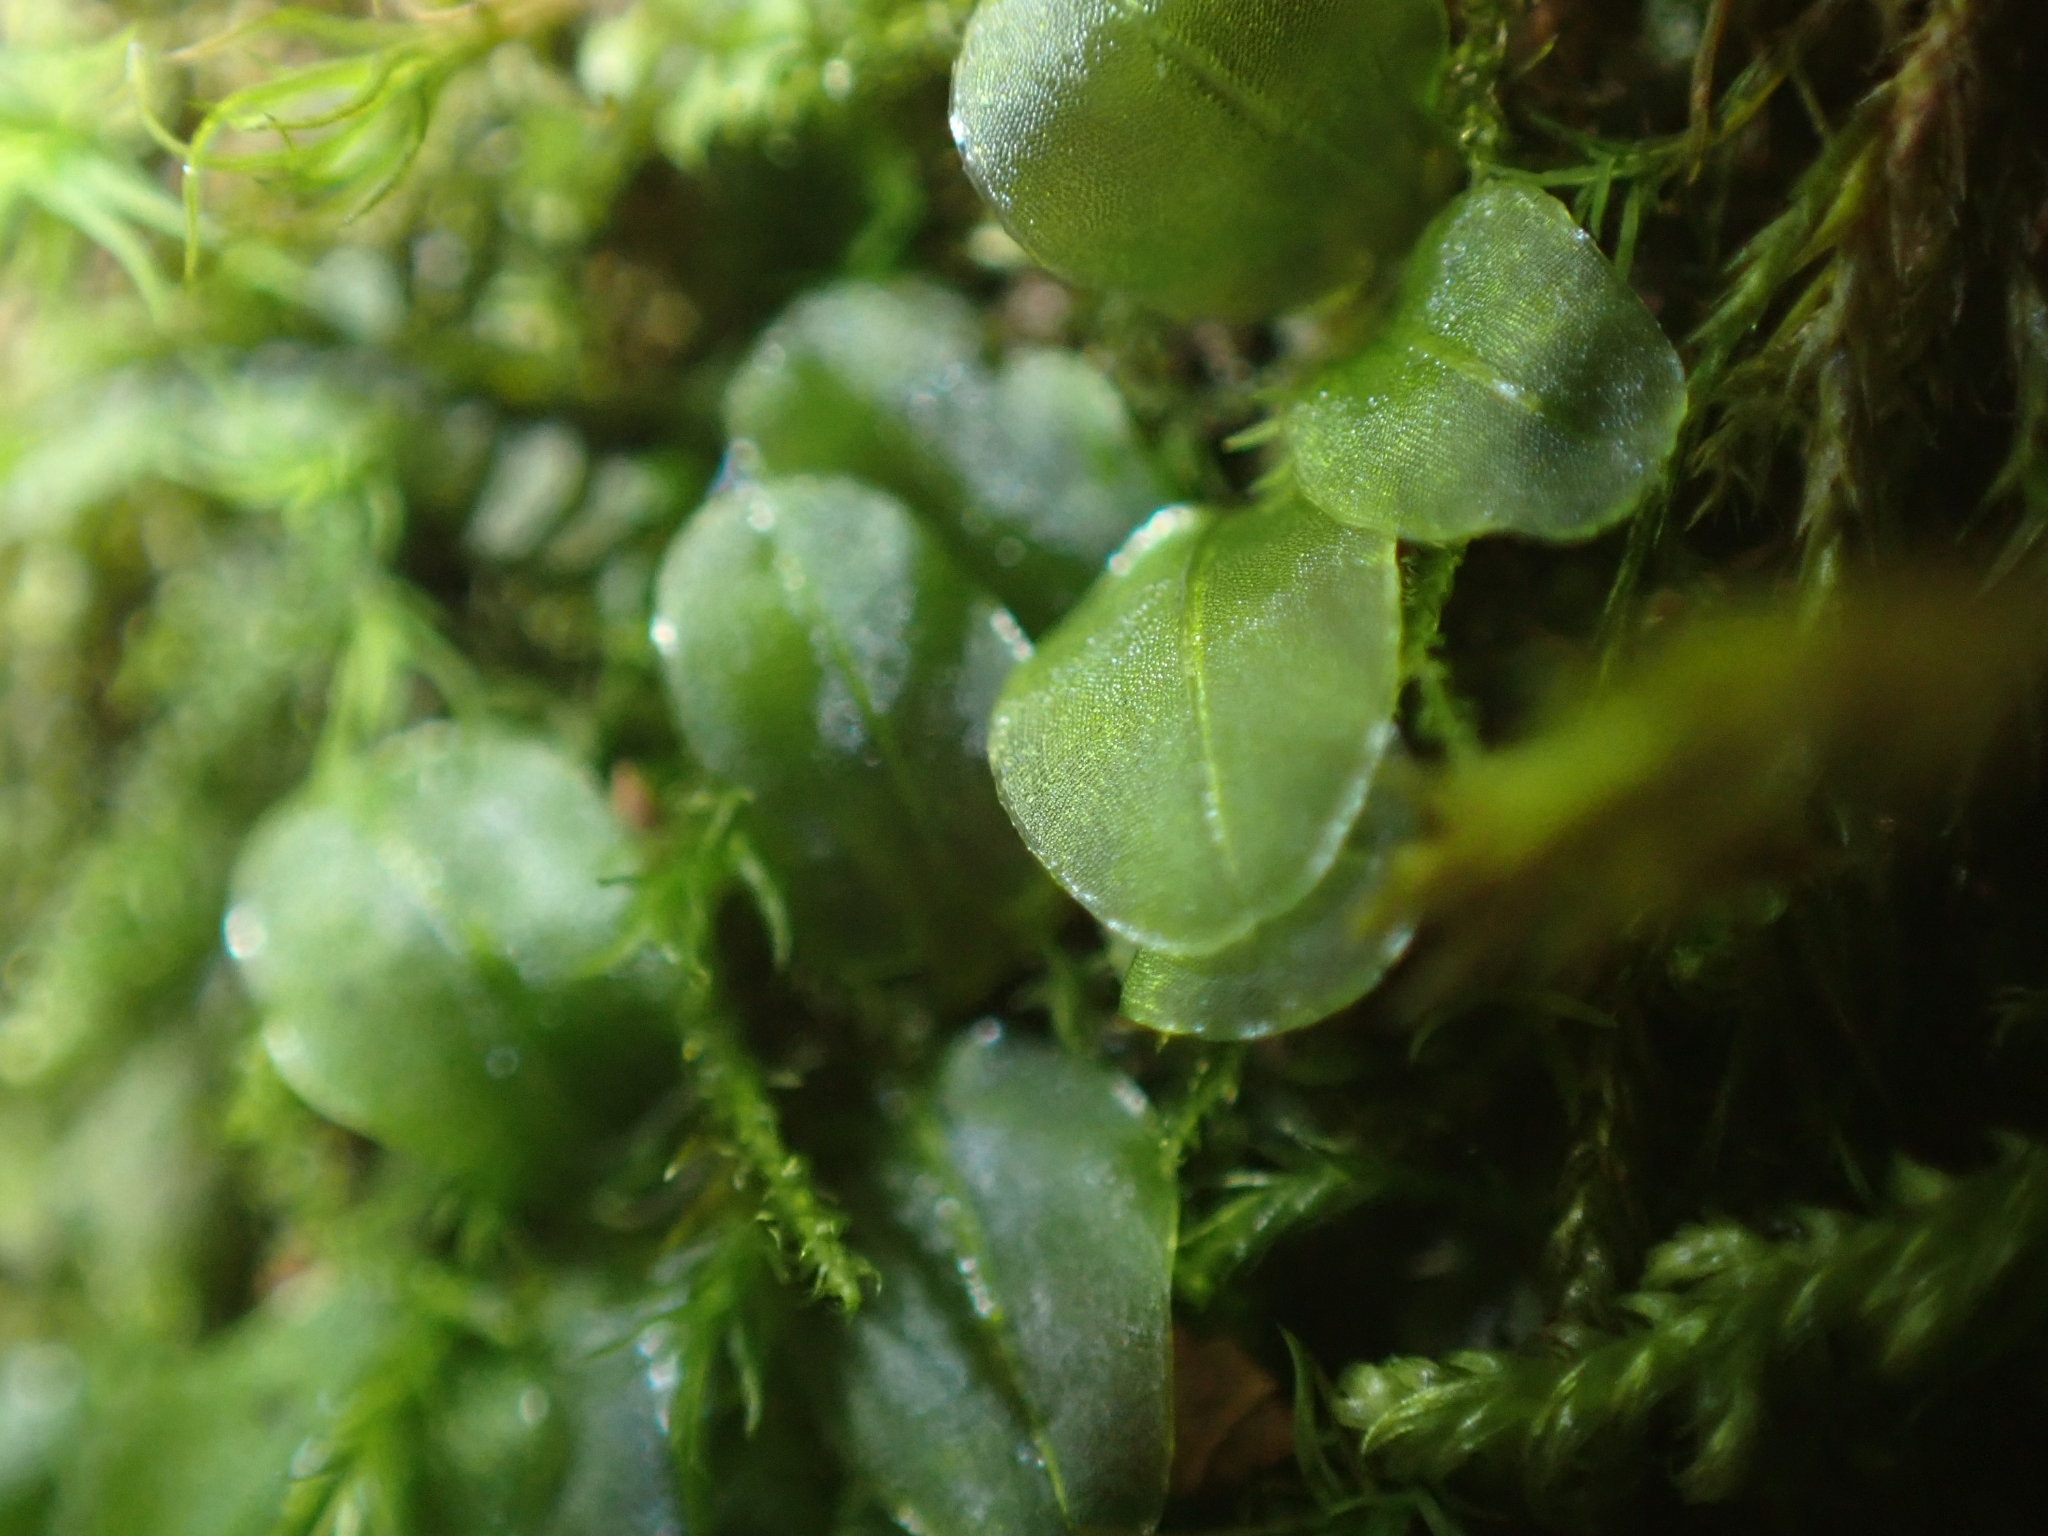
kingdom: Plantae
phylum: Bryophyta
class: Bryopsida
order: Bryales
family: Mniaceae
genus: Plagiomnium
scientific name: Plagiomnium rostratum
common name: Long-beaked leafy moss
